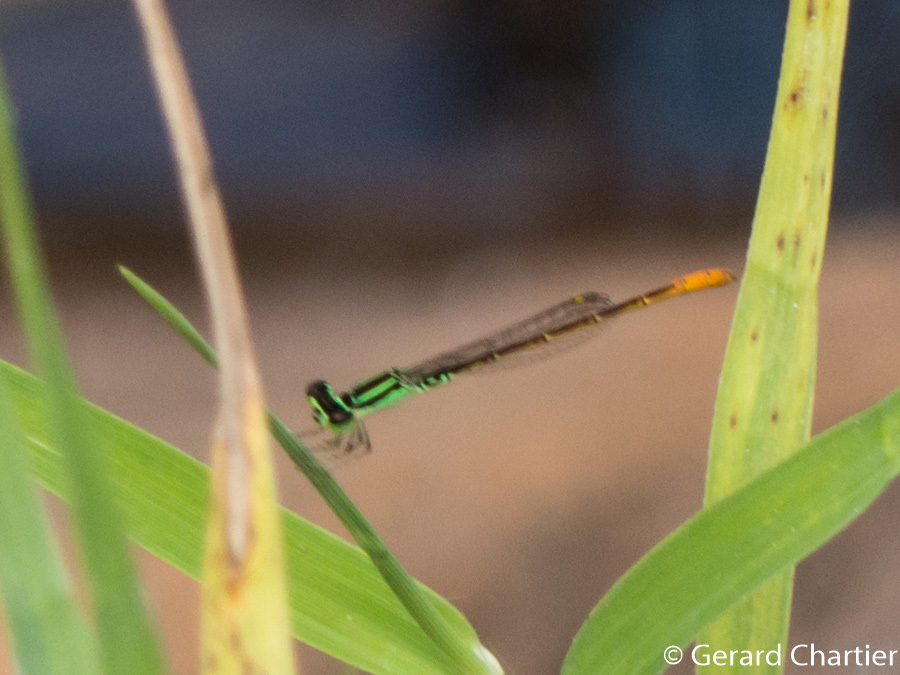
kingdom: Animalia
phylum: Arthropoda
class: Insecta
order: Odonata
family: Coenagrionidae
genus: Agriocnemis
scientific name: Agriocnemis minima
